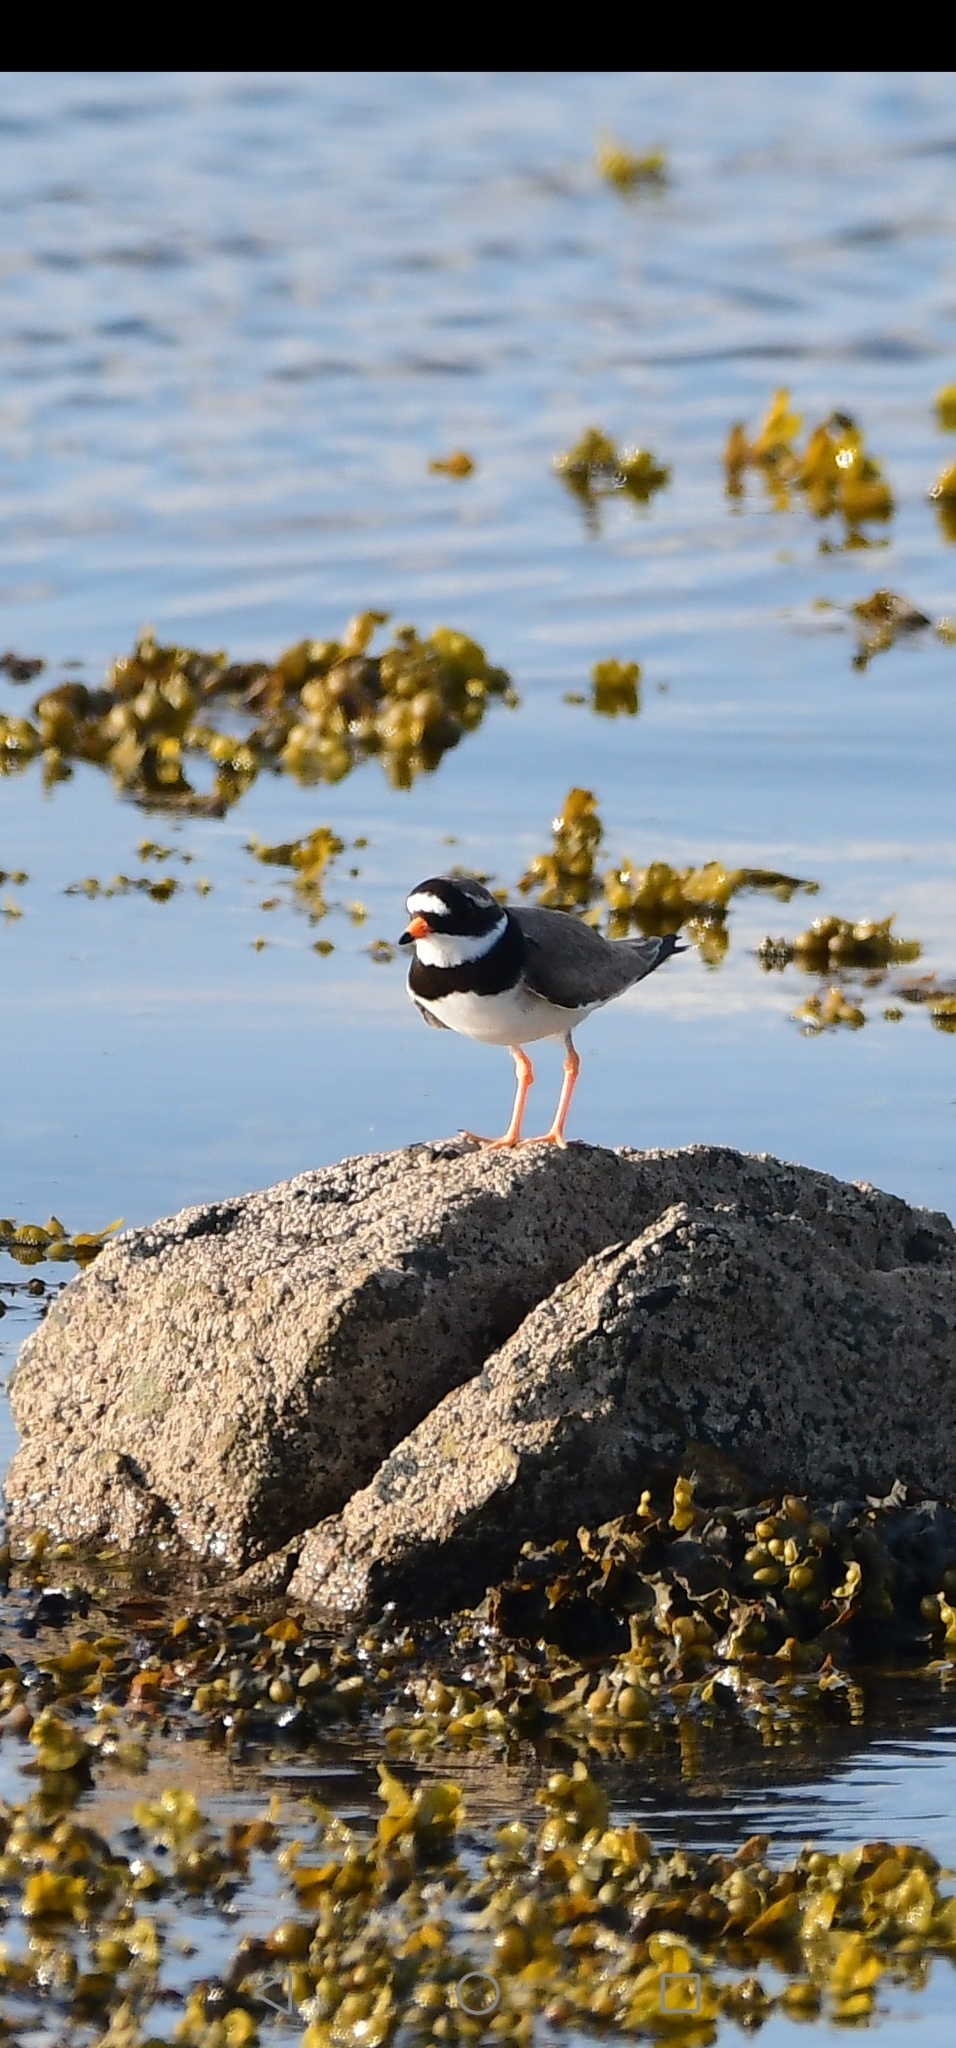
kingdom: Animalia
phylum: Chordata
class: Aves
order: Charadriiformes
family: Charadriidae
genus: Charadrius
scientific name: Charadrius hiaticula
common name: Common ringed plover
